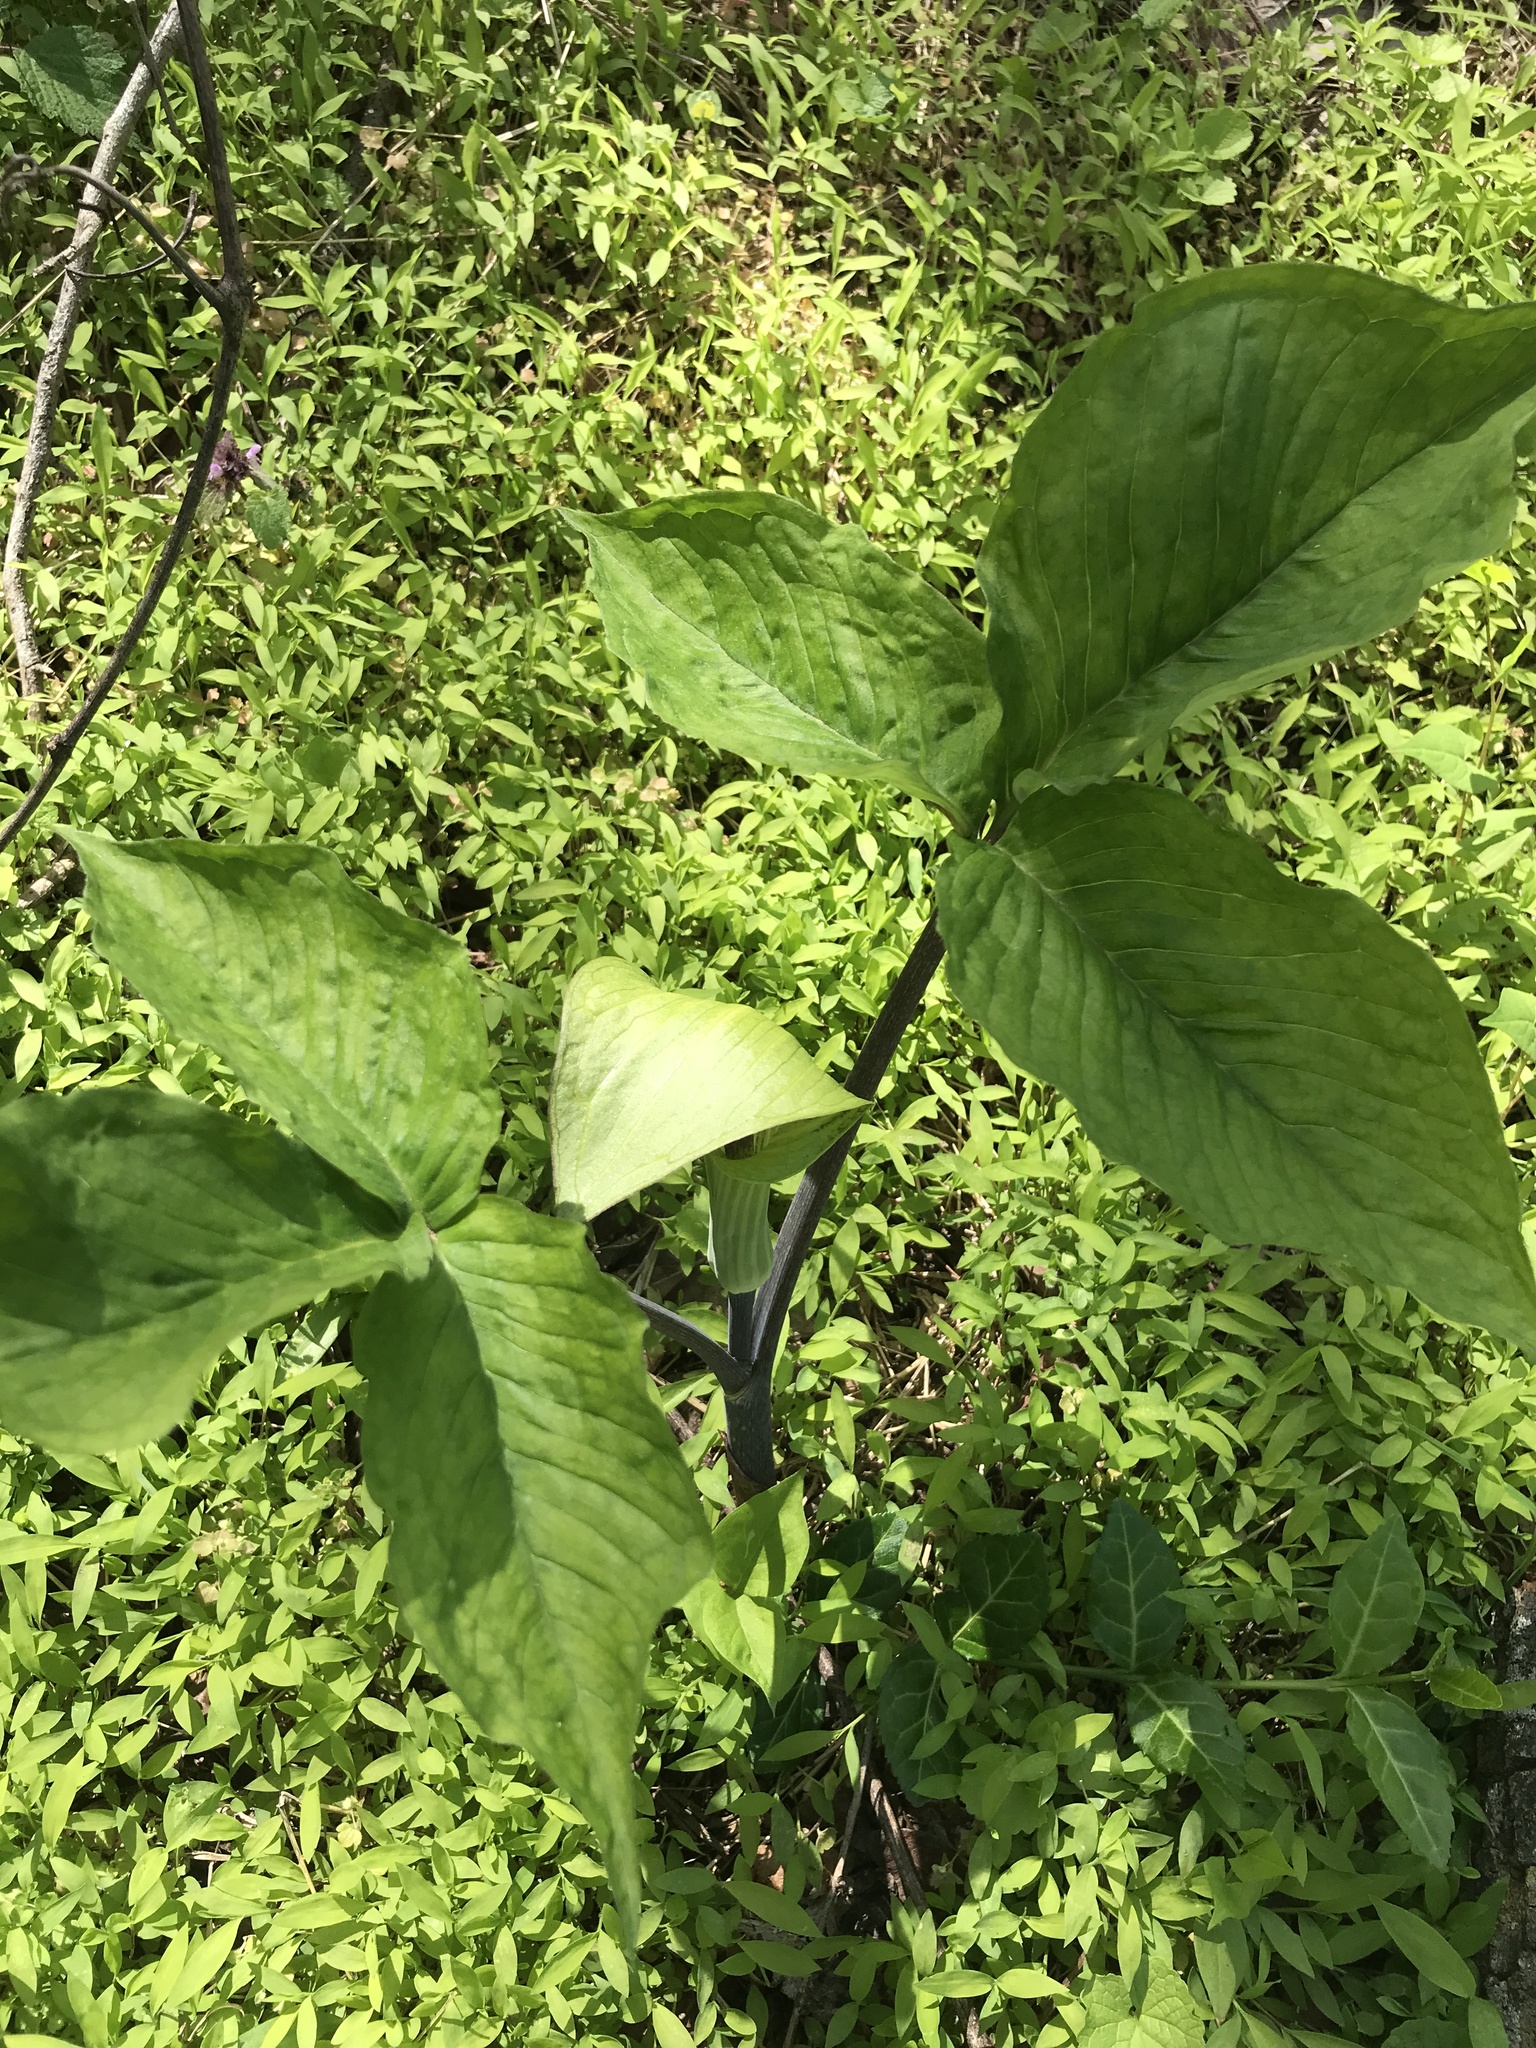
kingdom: Plantae
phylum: Tracheophyta
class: Liliopsida
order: Alismatales
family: Araceae
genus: Arisaema
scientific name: Arisaema triphyllum
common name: Jack-in-the-pulpit
